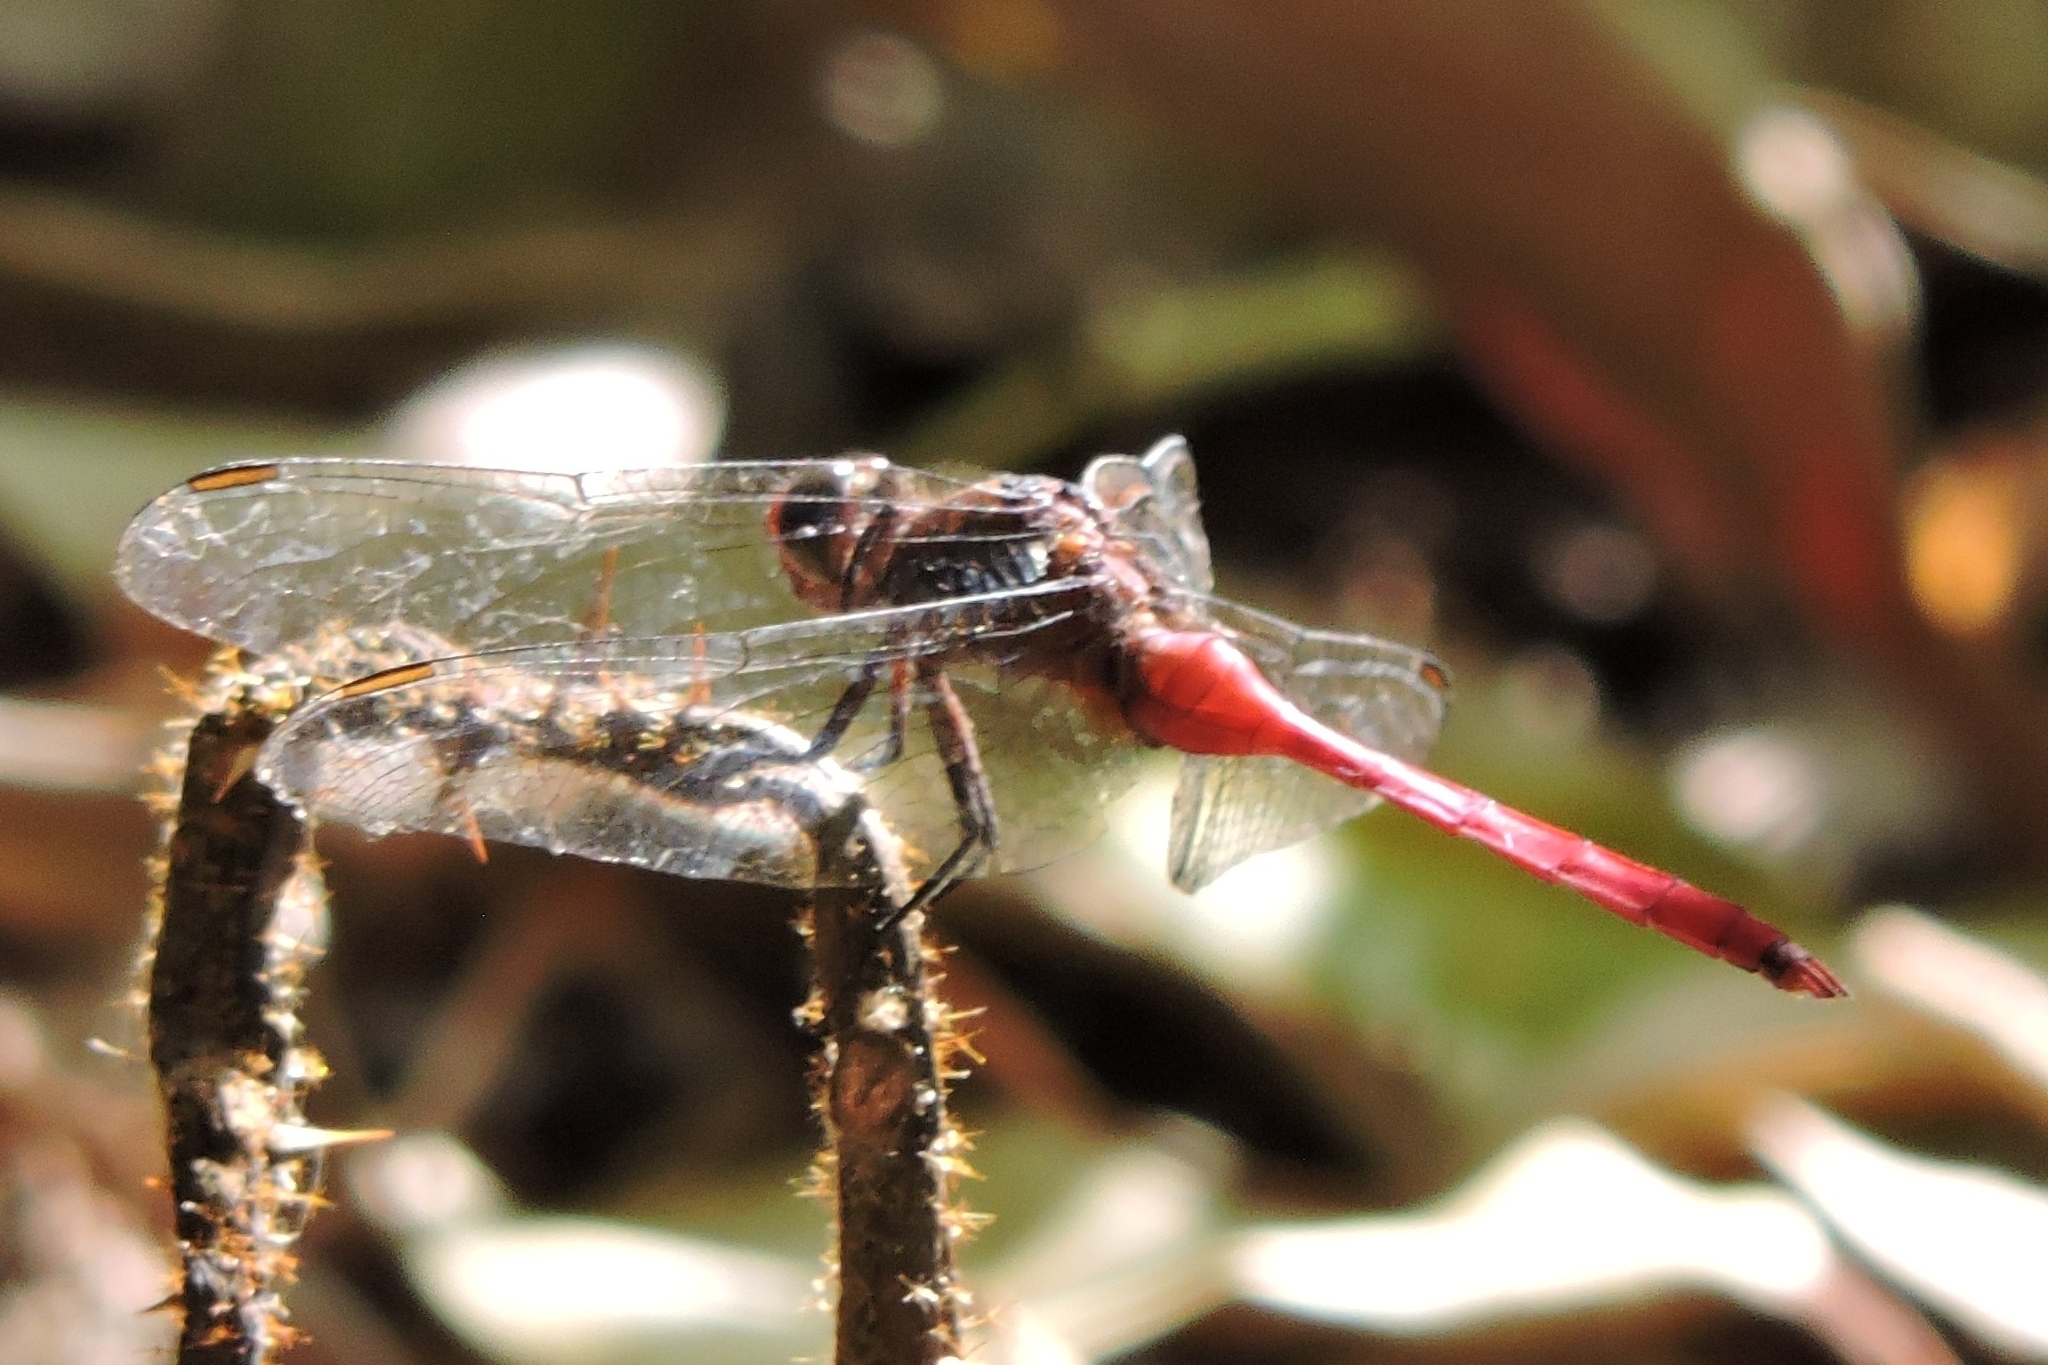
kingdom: Animalia
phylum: Arthropoda
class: Insecta
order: Odonata
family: Libellulidae
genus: Orthetrum
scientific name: Orthetrum villosovittatum
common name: Firery skimmer
